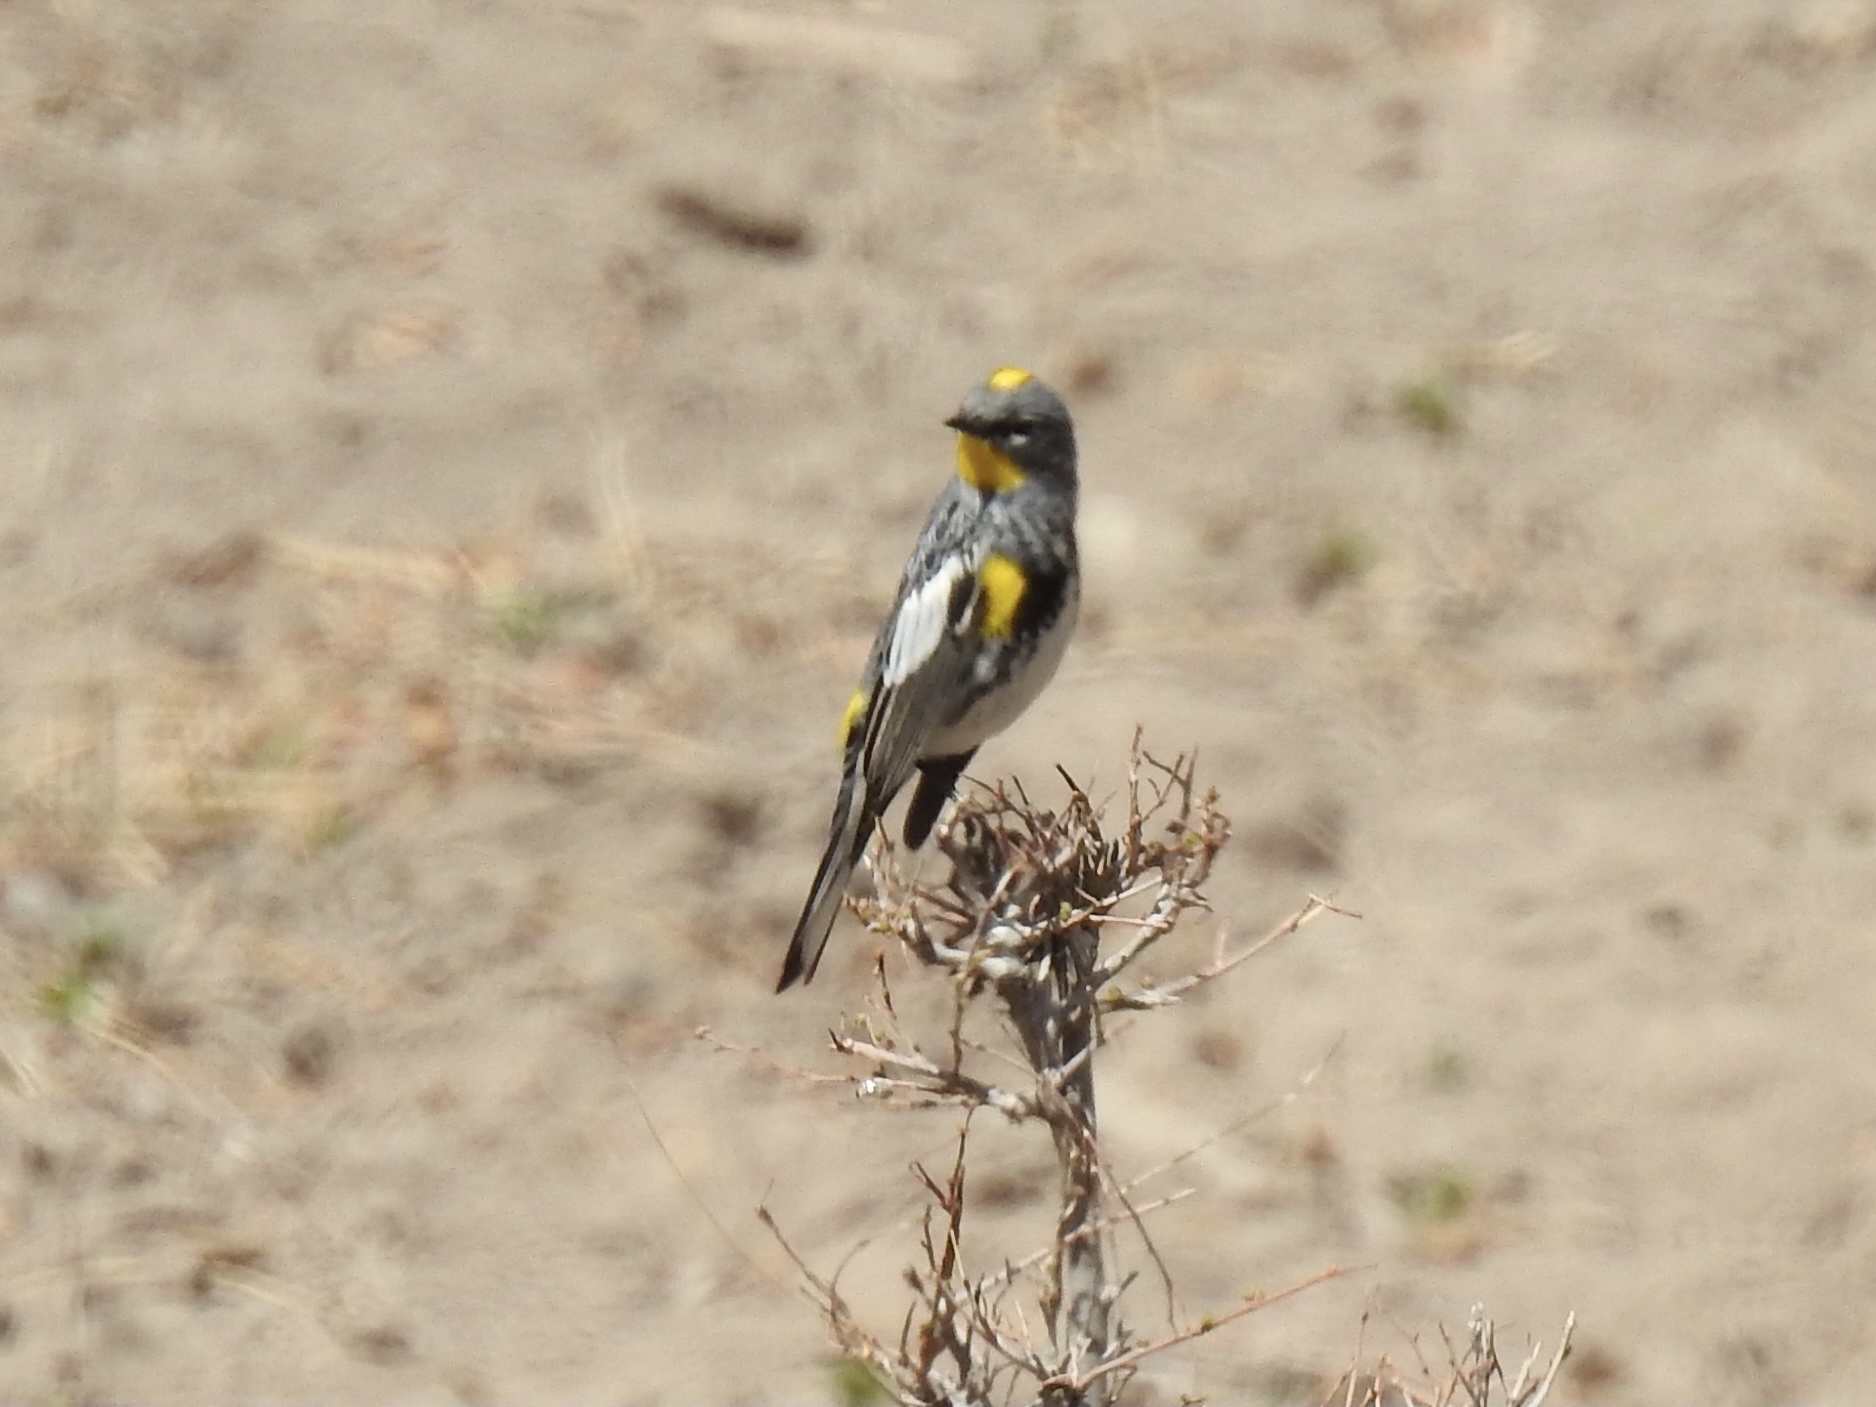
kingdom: Animalia
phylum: Chordata
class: Aves
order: Passeriformes
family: Parulidae
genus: Setophaga
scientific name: Setophaga coronata
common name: Myrtle warbler
